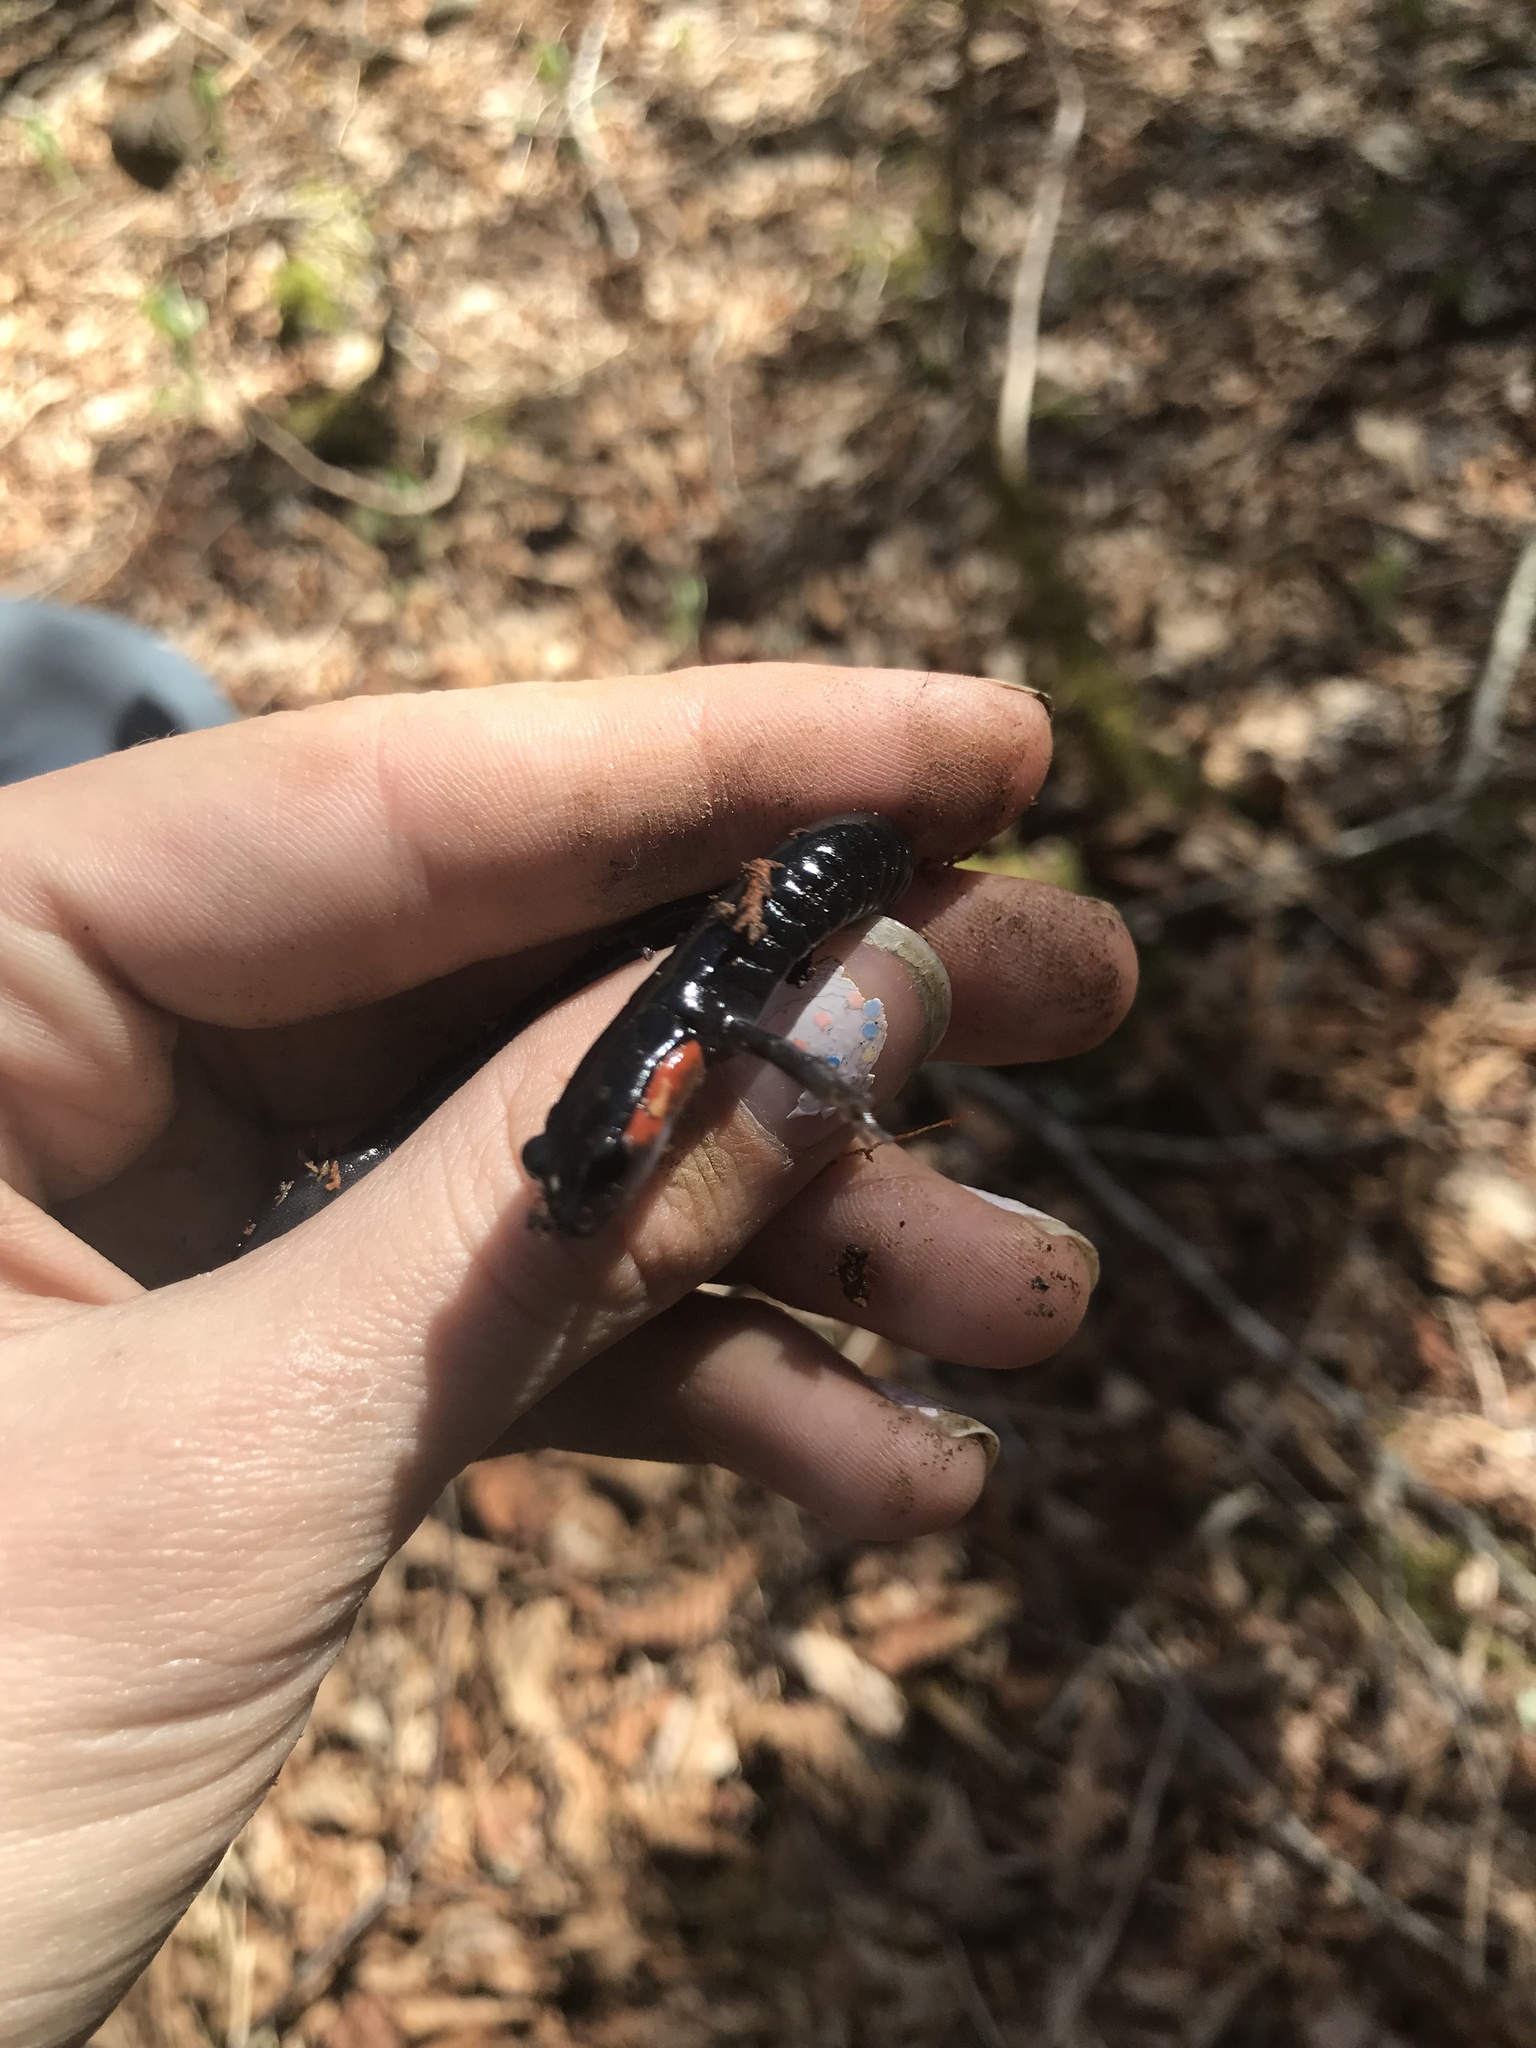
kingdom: Animalia
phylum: Chordata
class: Amphibia
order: Caudata
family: Plethodontidae
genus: Plethodon
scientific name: Plethodon jordani
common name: Red-cheeked salamander
